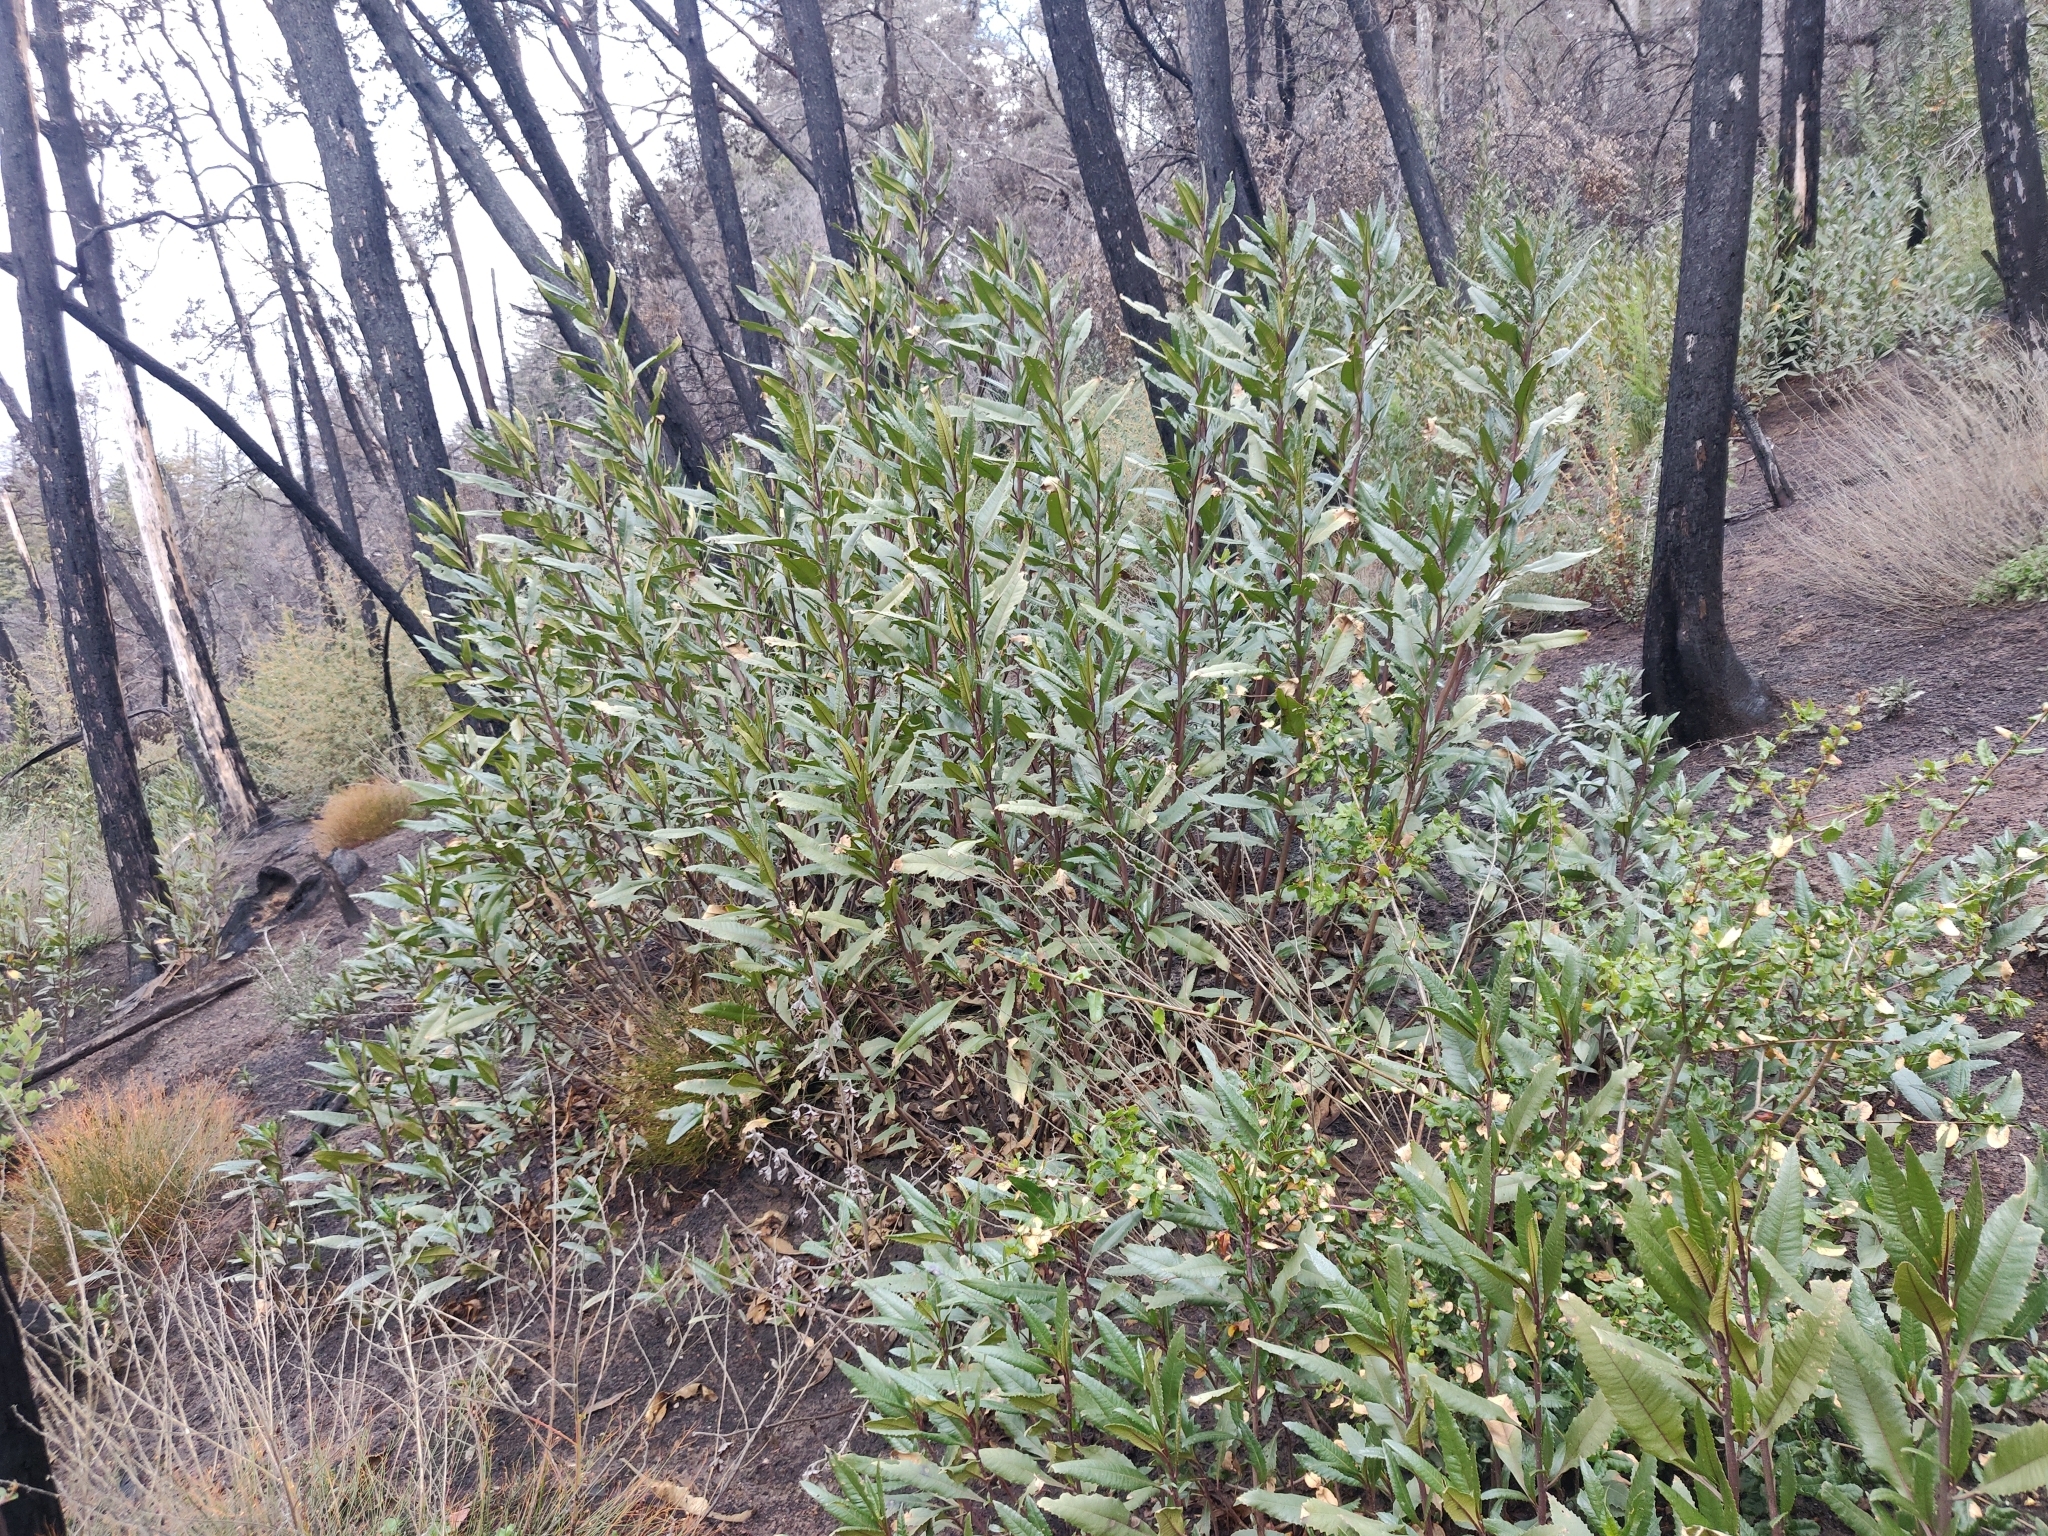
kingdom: Plantae
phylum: Tracheophyta
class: Magnoliopsida
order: Boraginales
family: Namaceae
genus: Eriodictyon
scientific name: Eriodictyon californicum
